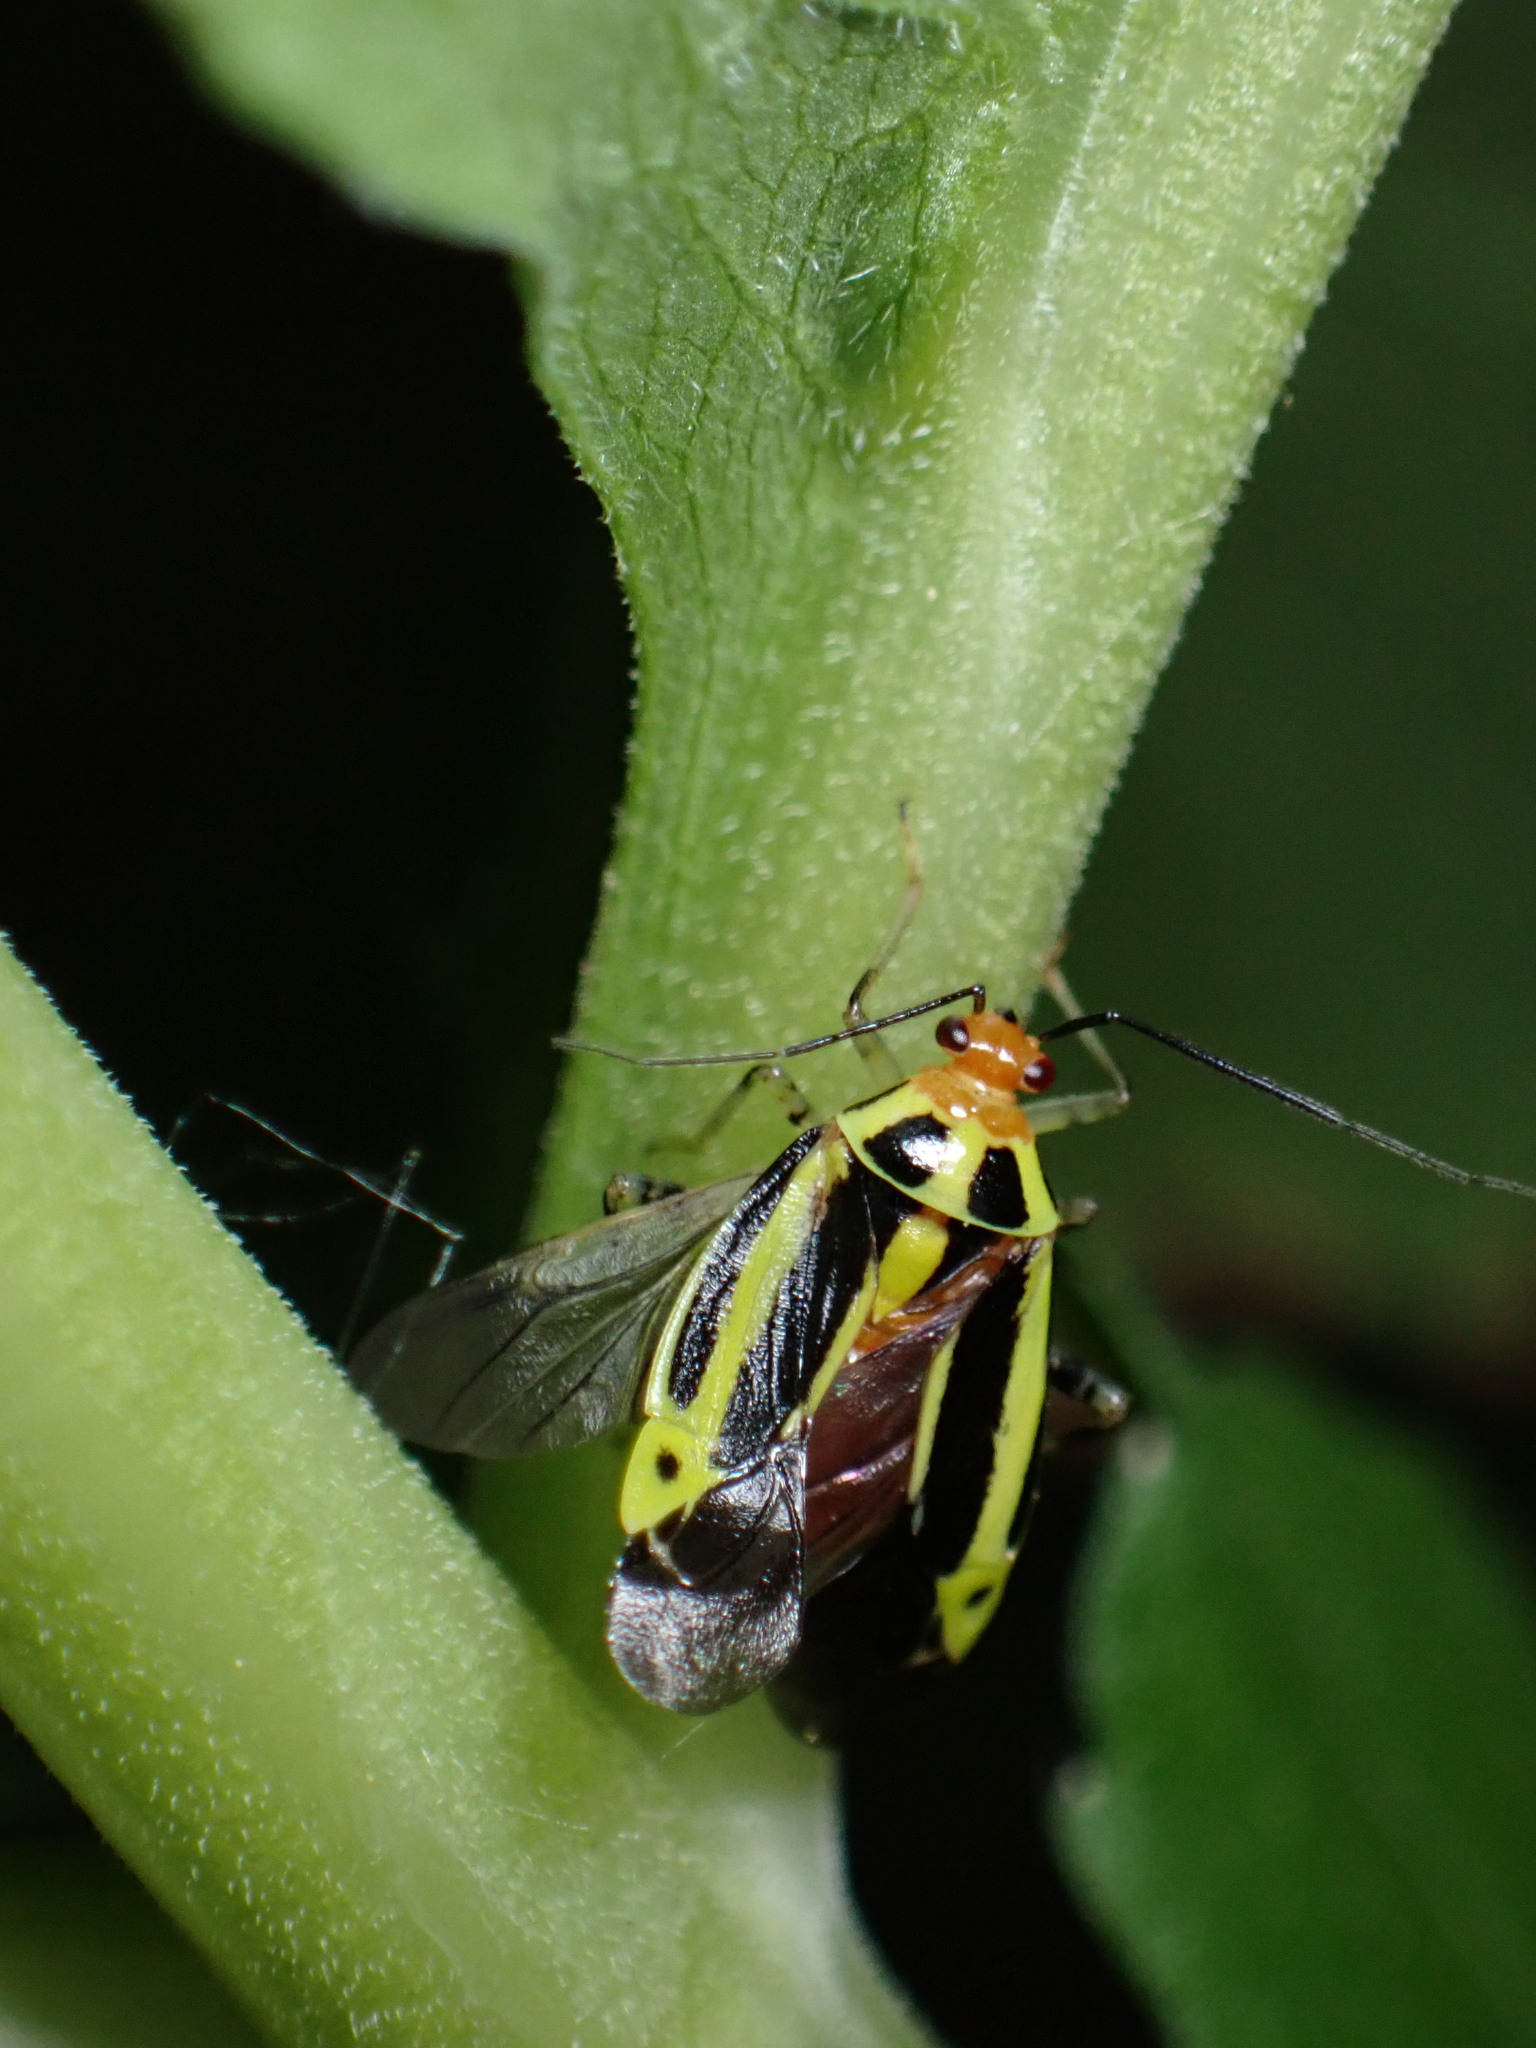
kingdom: Animalia
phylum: Arthropoda
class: Insecta
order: Hemiptera
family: Miridae
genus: Poecilocapsus
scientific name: Poecilocapsus lineatus
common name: Four-lined plant bug
